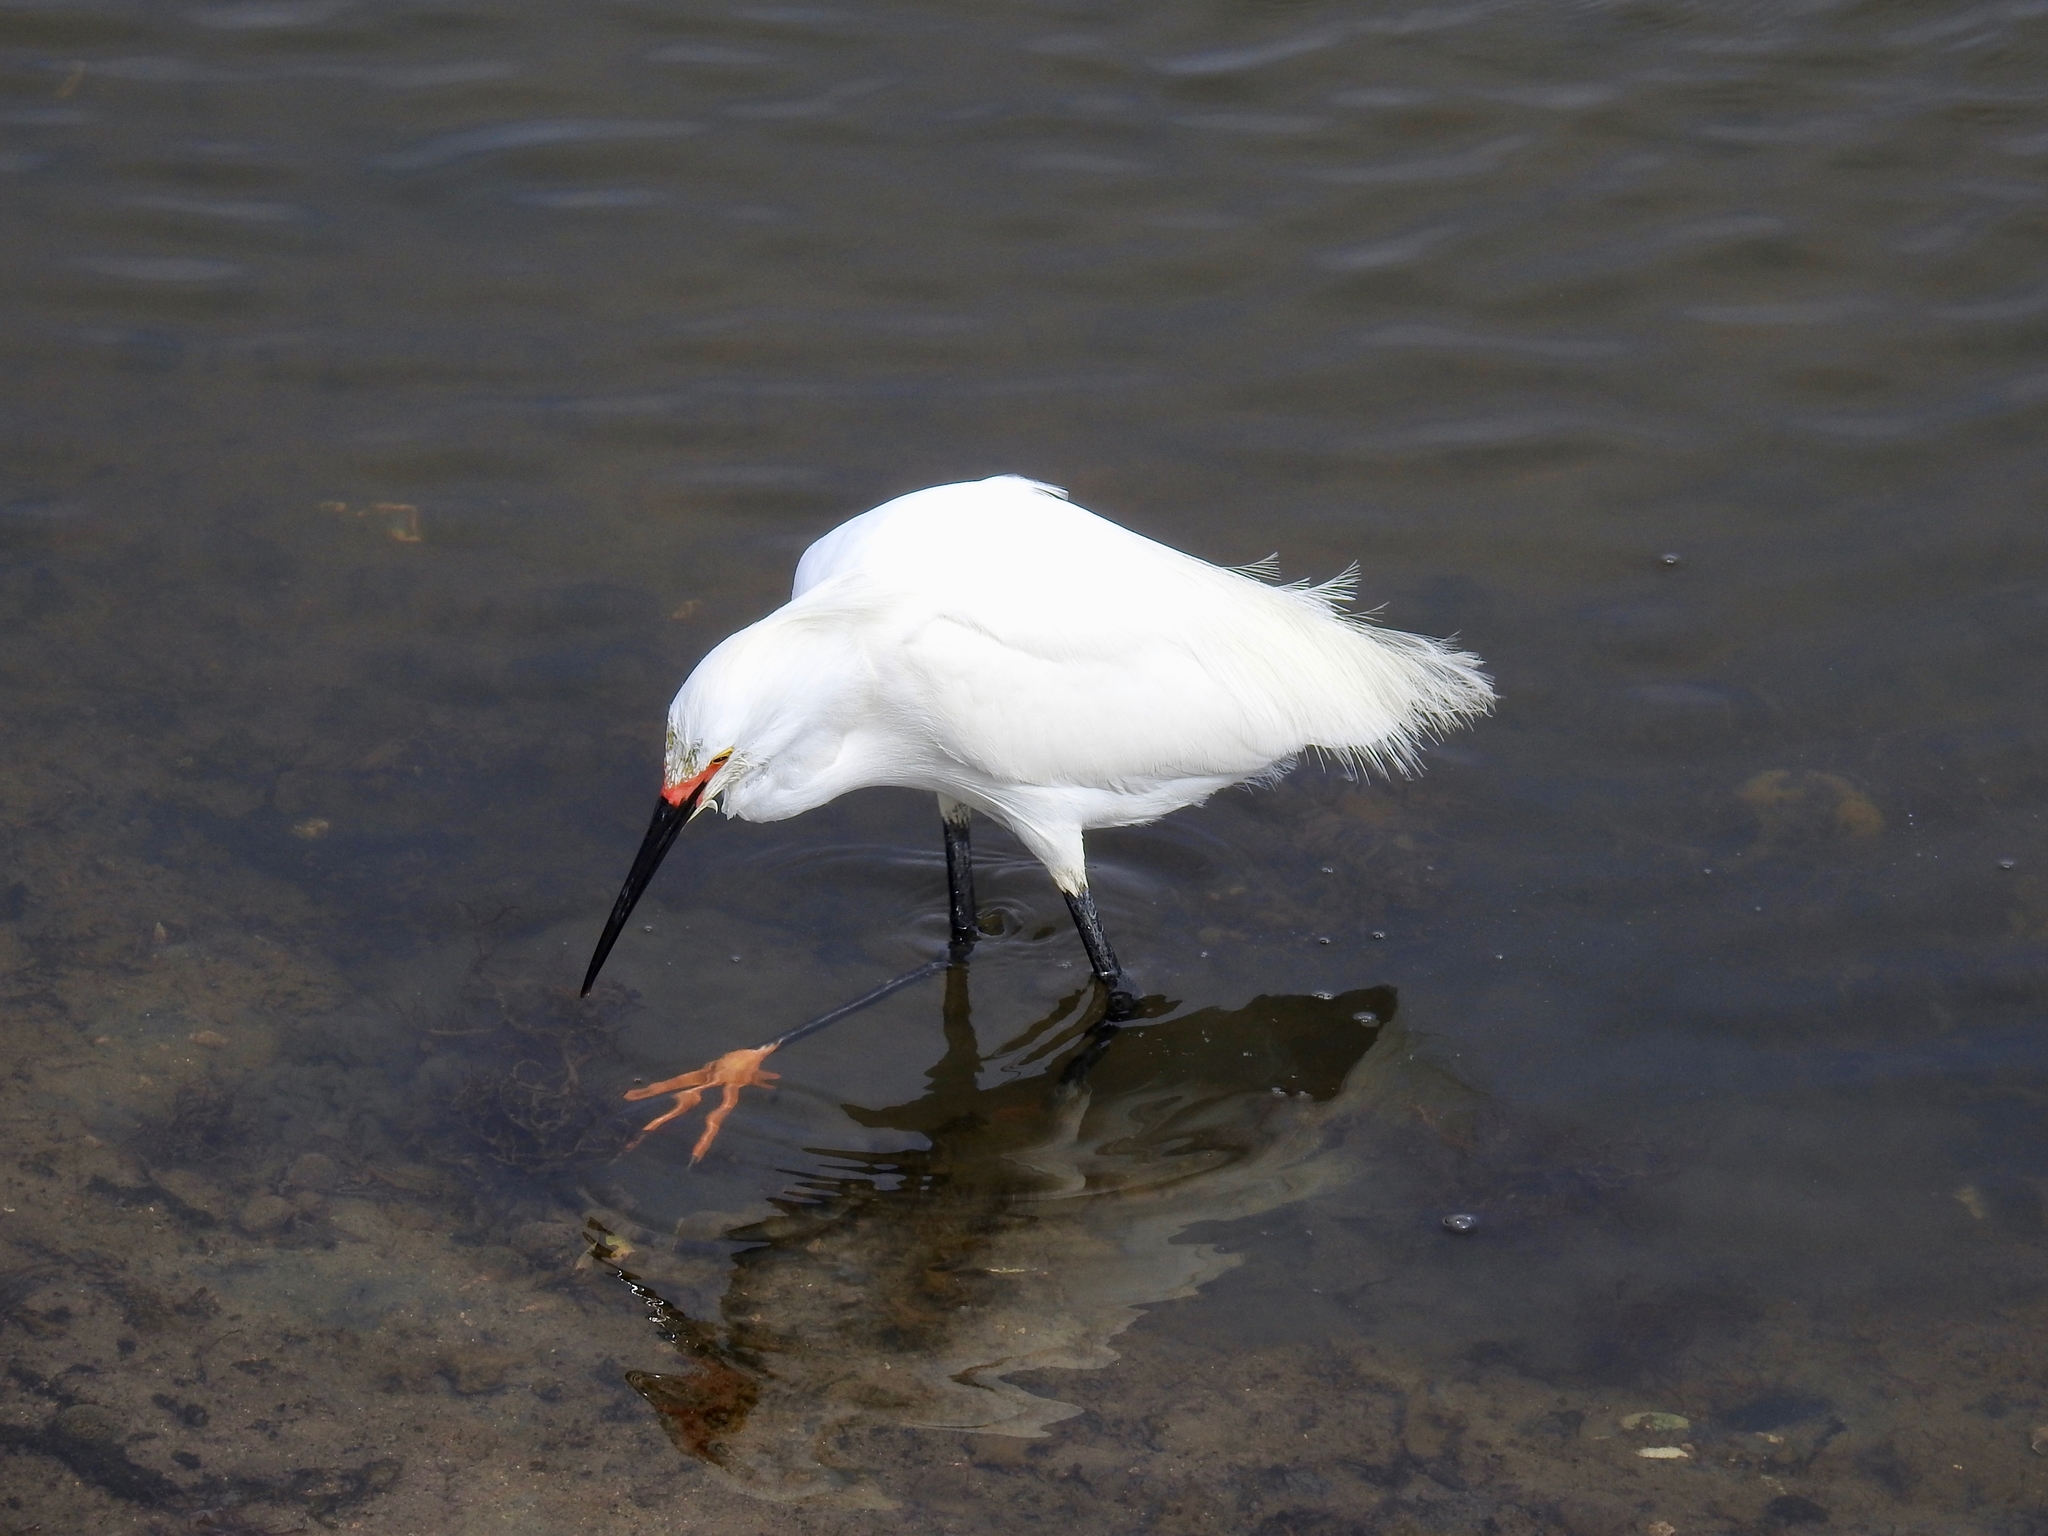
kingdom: Animalia
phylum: Chordata
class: Aves
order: Pelecaniformes
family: Ardeidae
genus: Egretta
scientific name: Egretta thula
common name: Snowy egret
